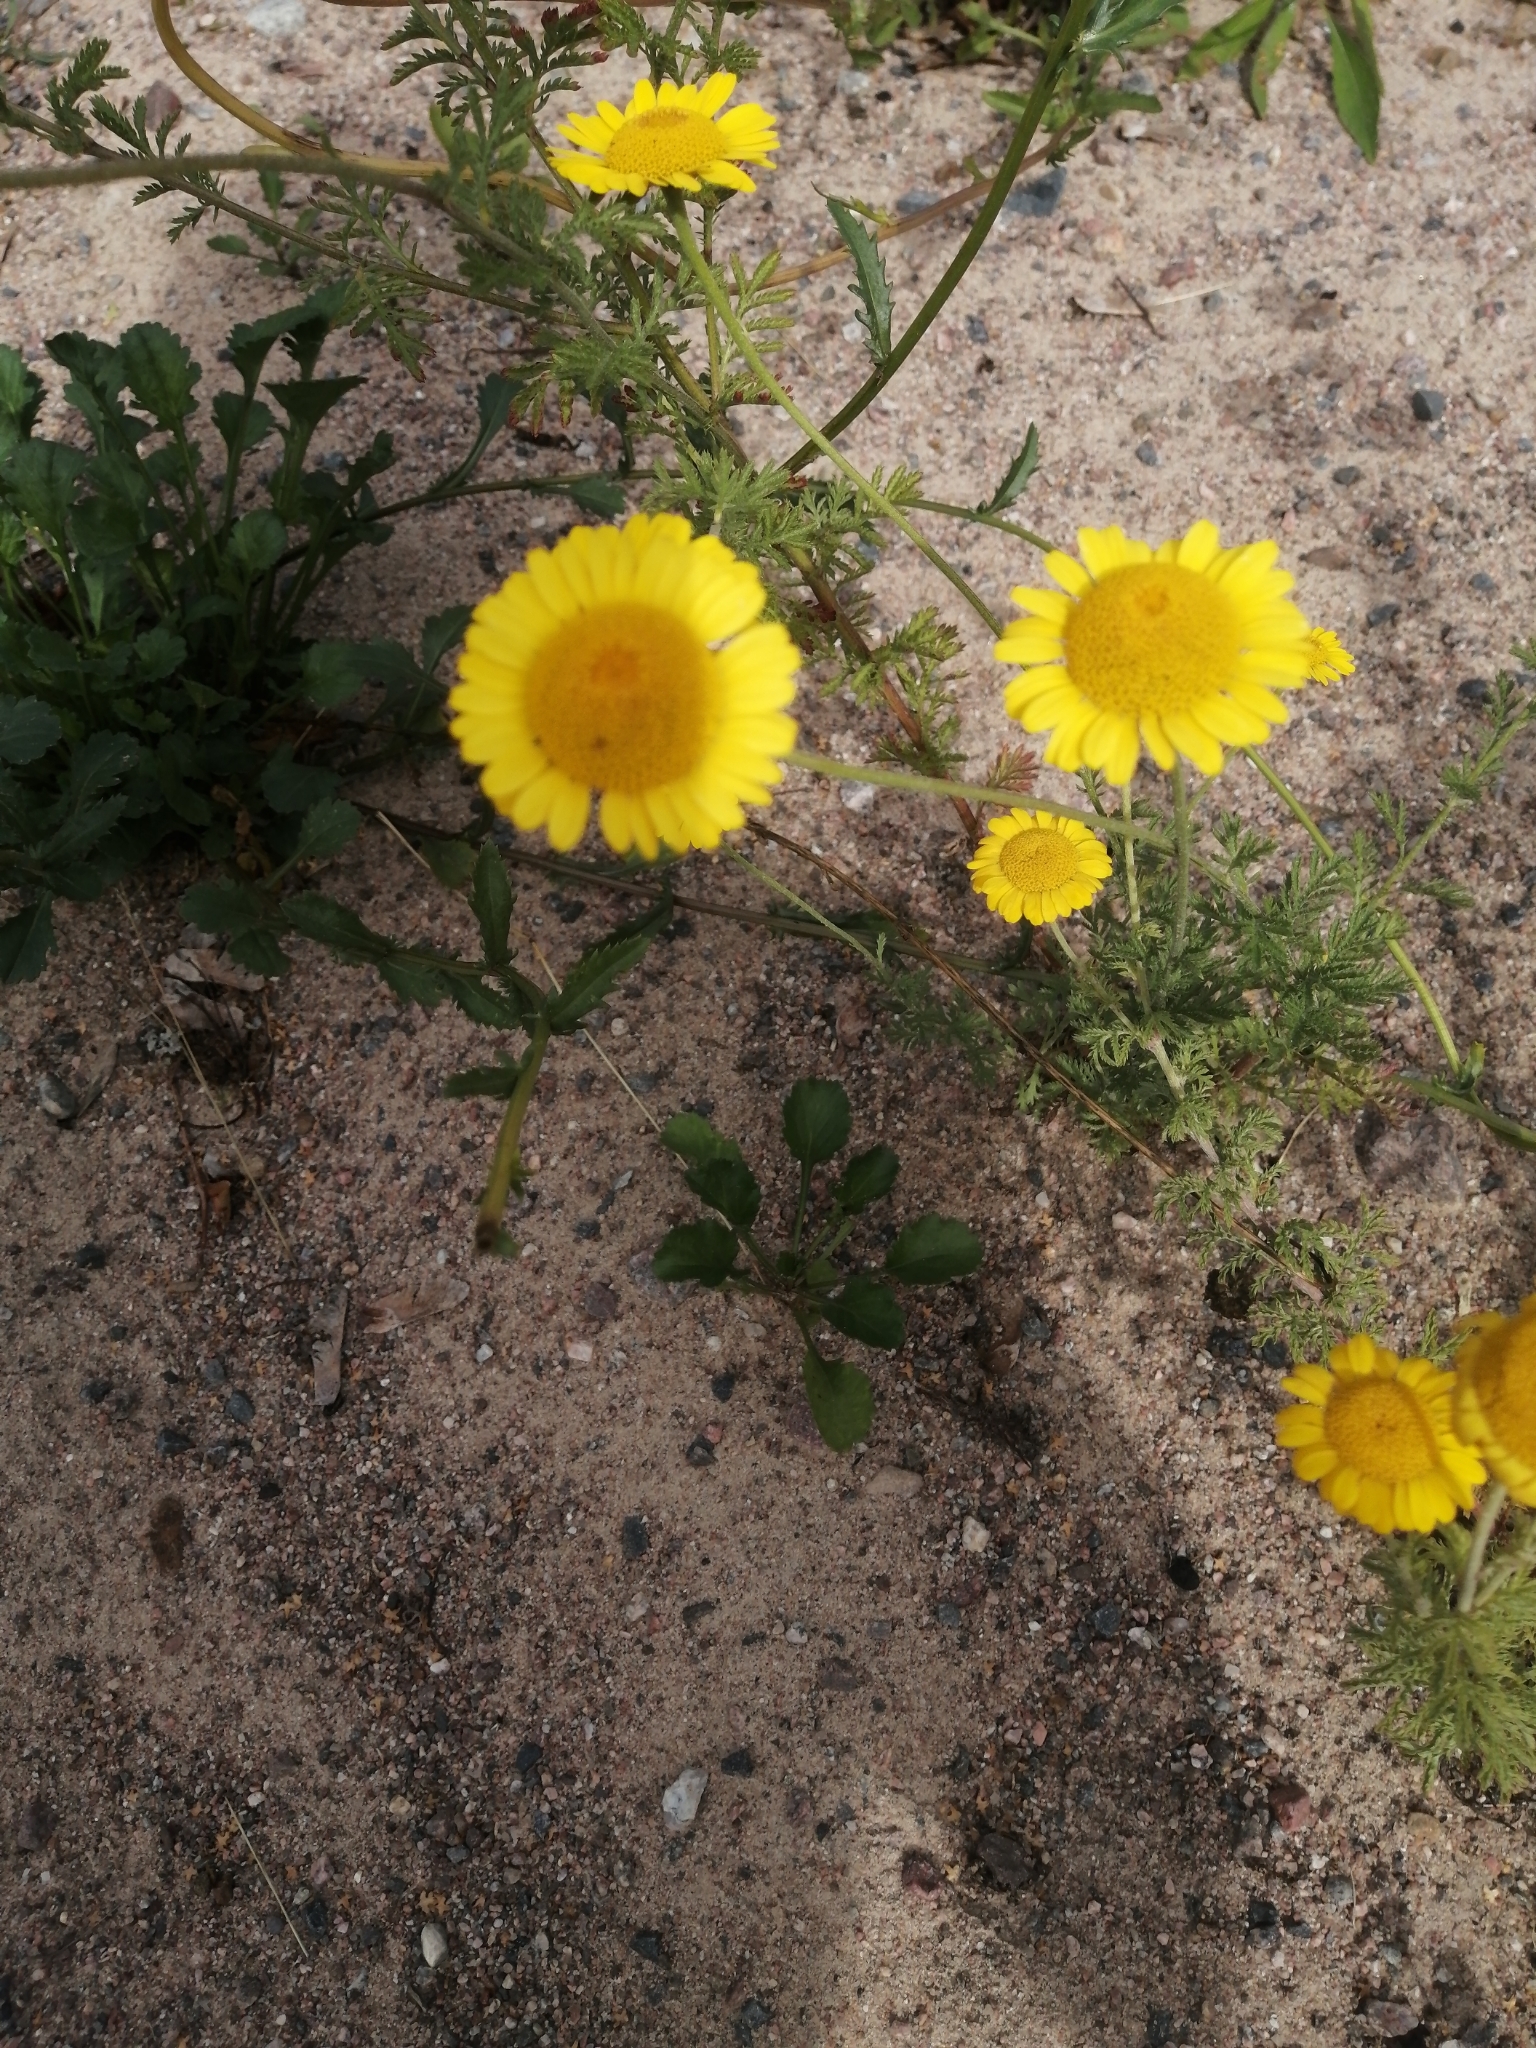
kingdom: Plantae
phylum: Tracheophyta
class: Magnoliopsida
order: Asterales
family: Asteraceae
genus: Cota
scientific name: Cota tinctoria
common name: Golden chamomile
